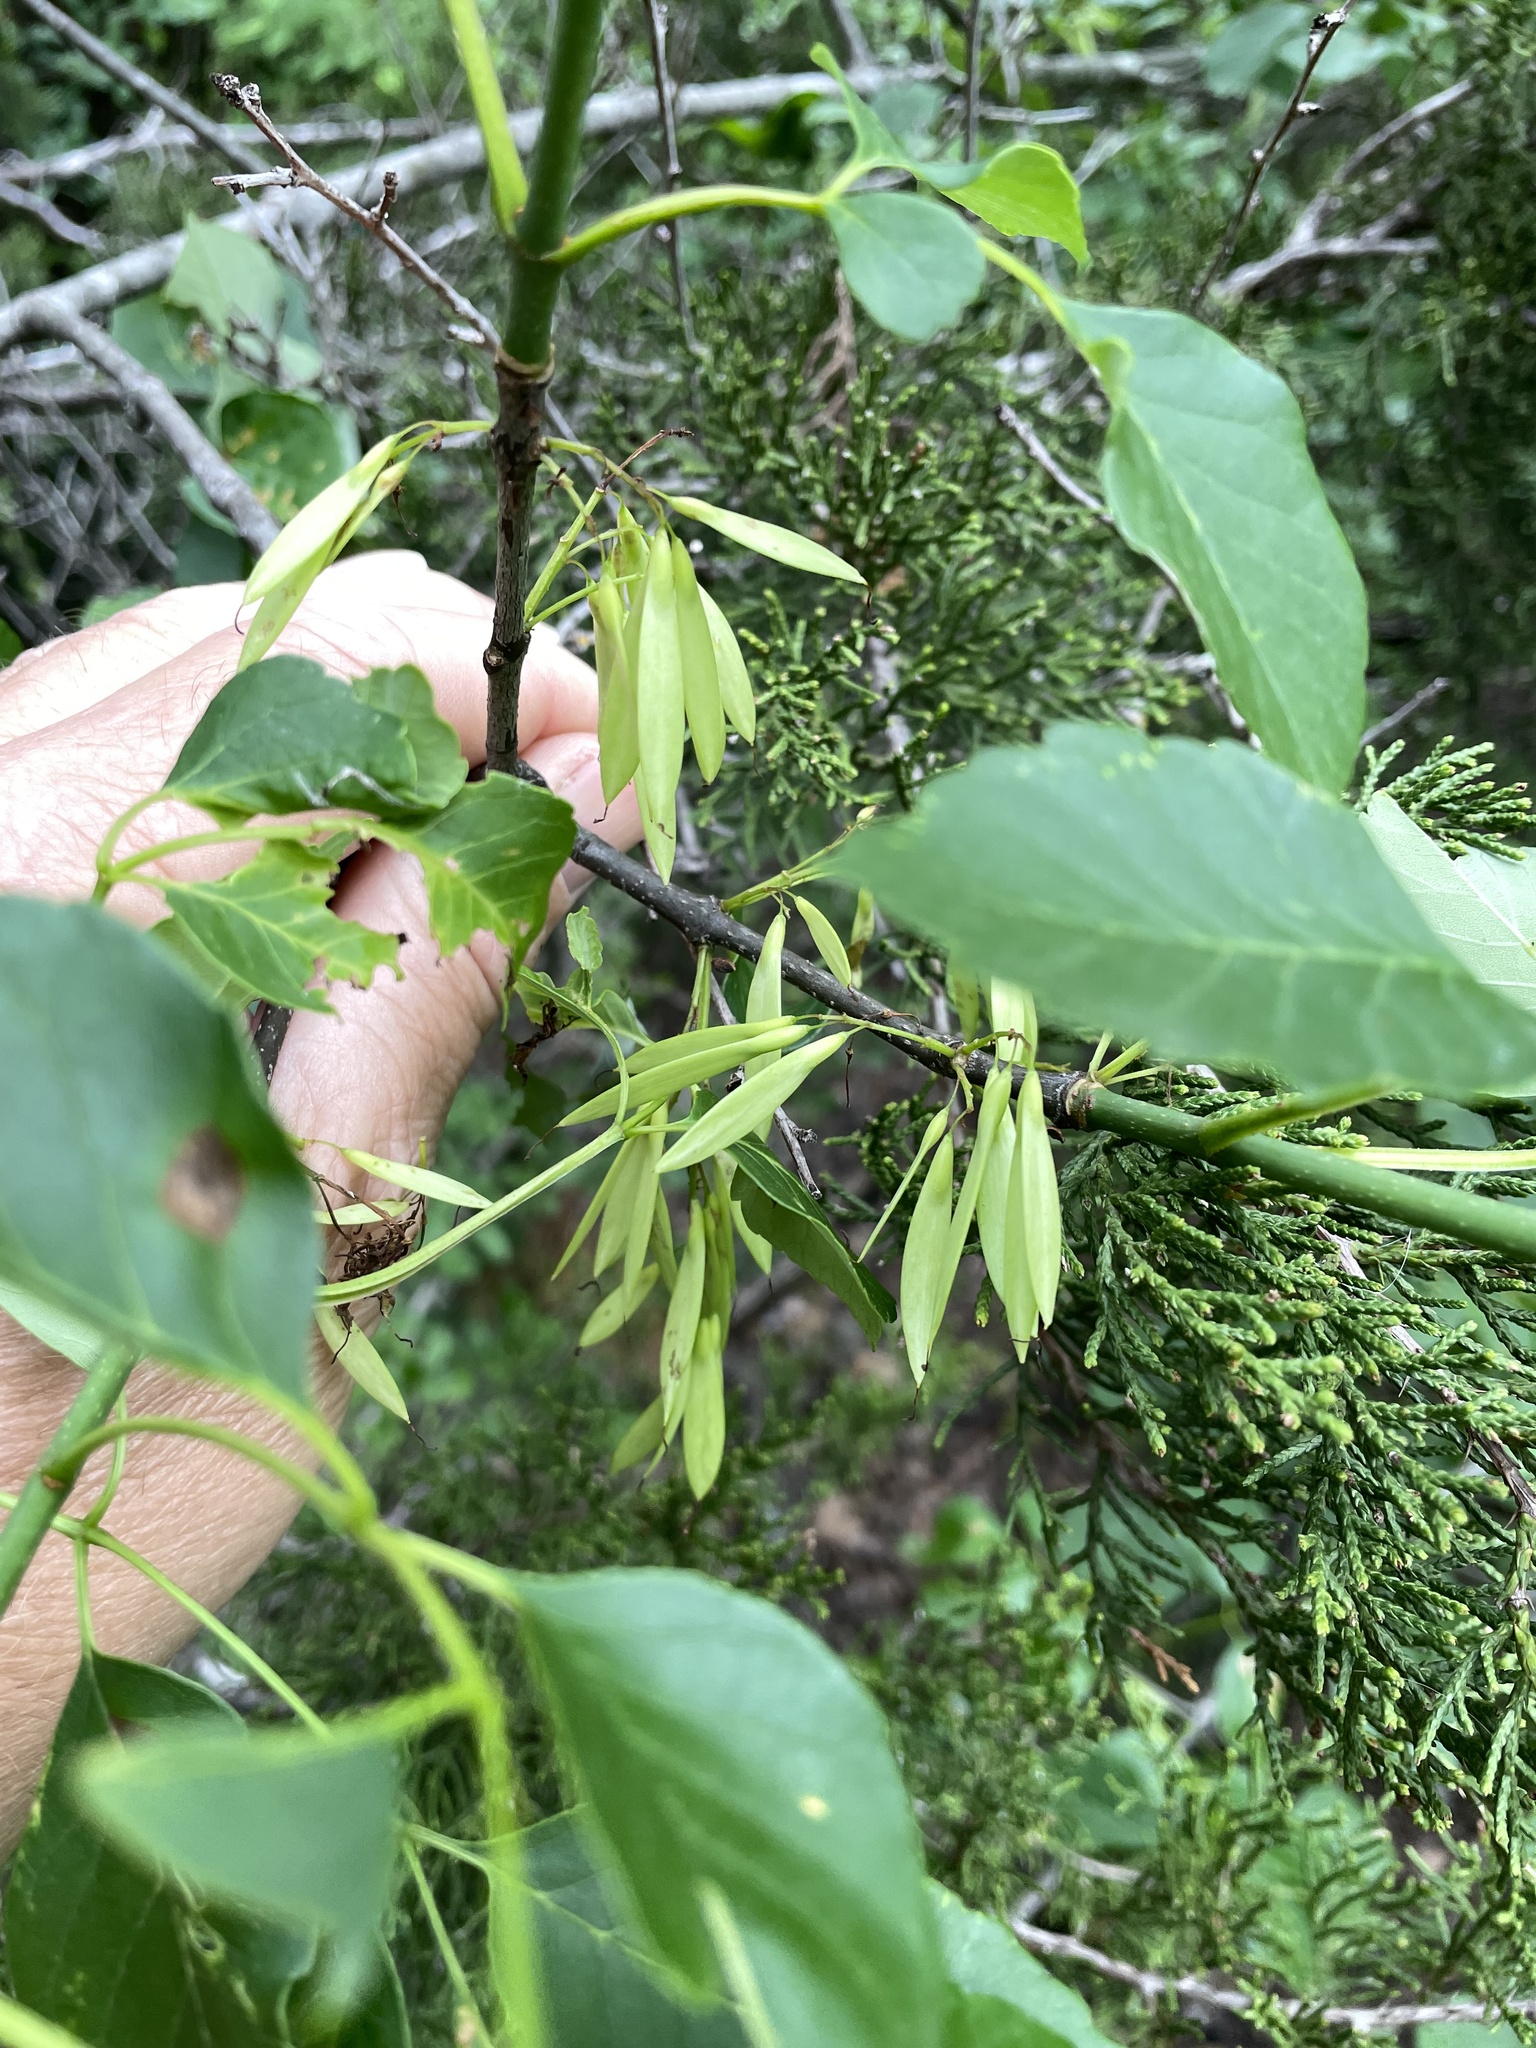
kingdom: Plantae
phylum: Tracheophyta
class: Magnoliopsida
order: Lamiales
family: Oleaceae
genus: Fraxinus
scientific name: Fraxinus albicans
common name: Texas ash
